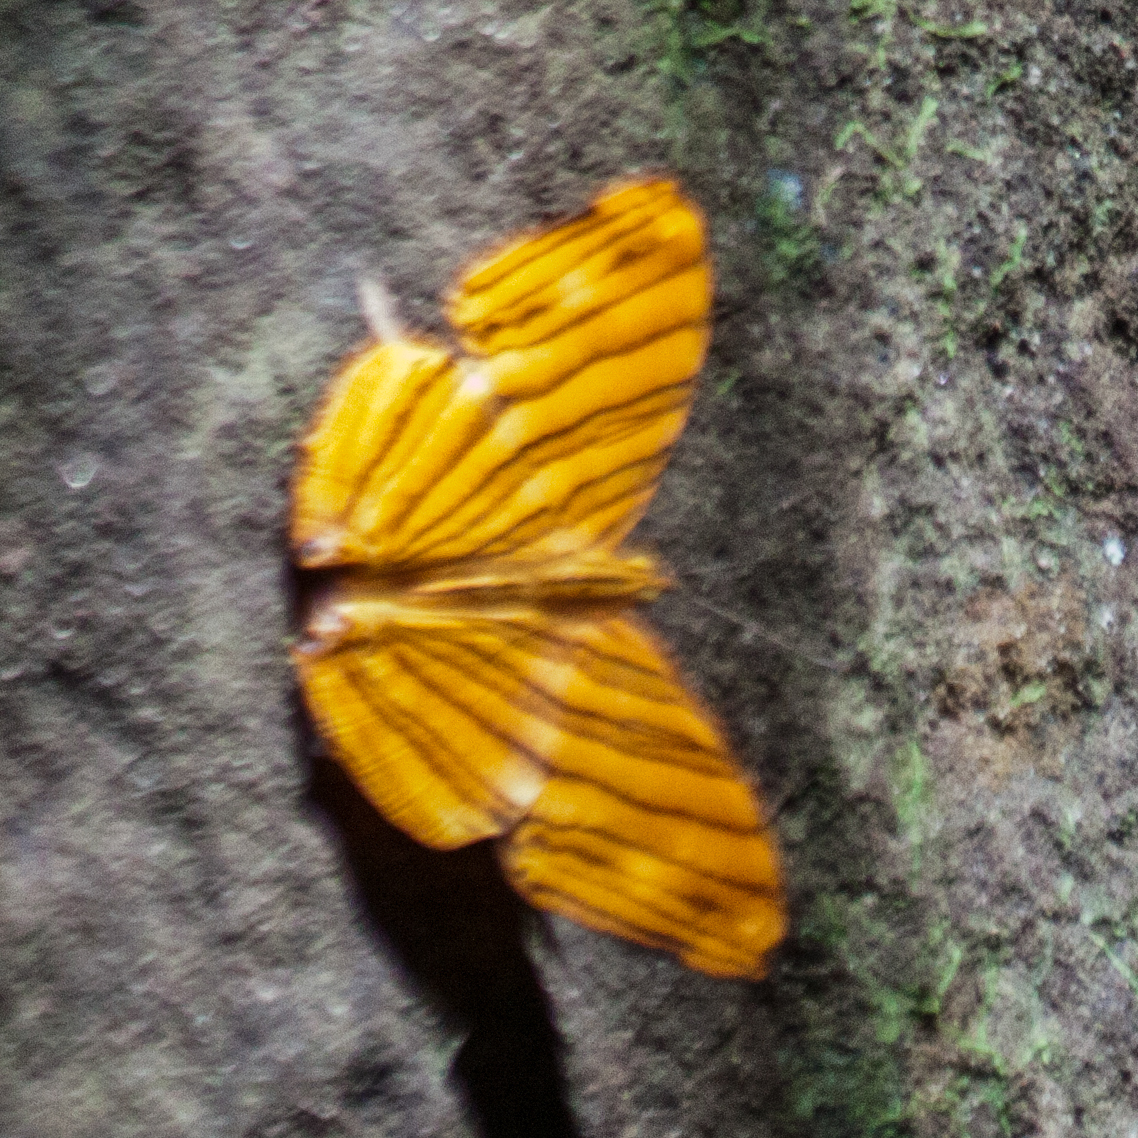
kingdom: Animalia
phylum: Arthropoda
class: Insecta
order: Lepidoptera
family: Nymphalidae
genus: Chersonesia
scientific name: Chersonesia risa
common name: Common maplet
